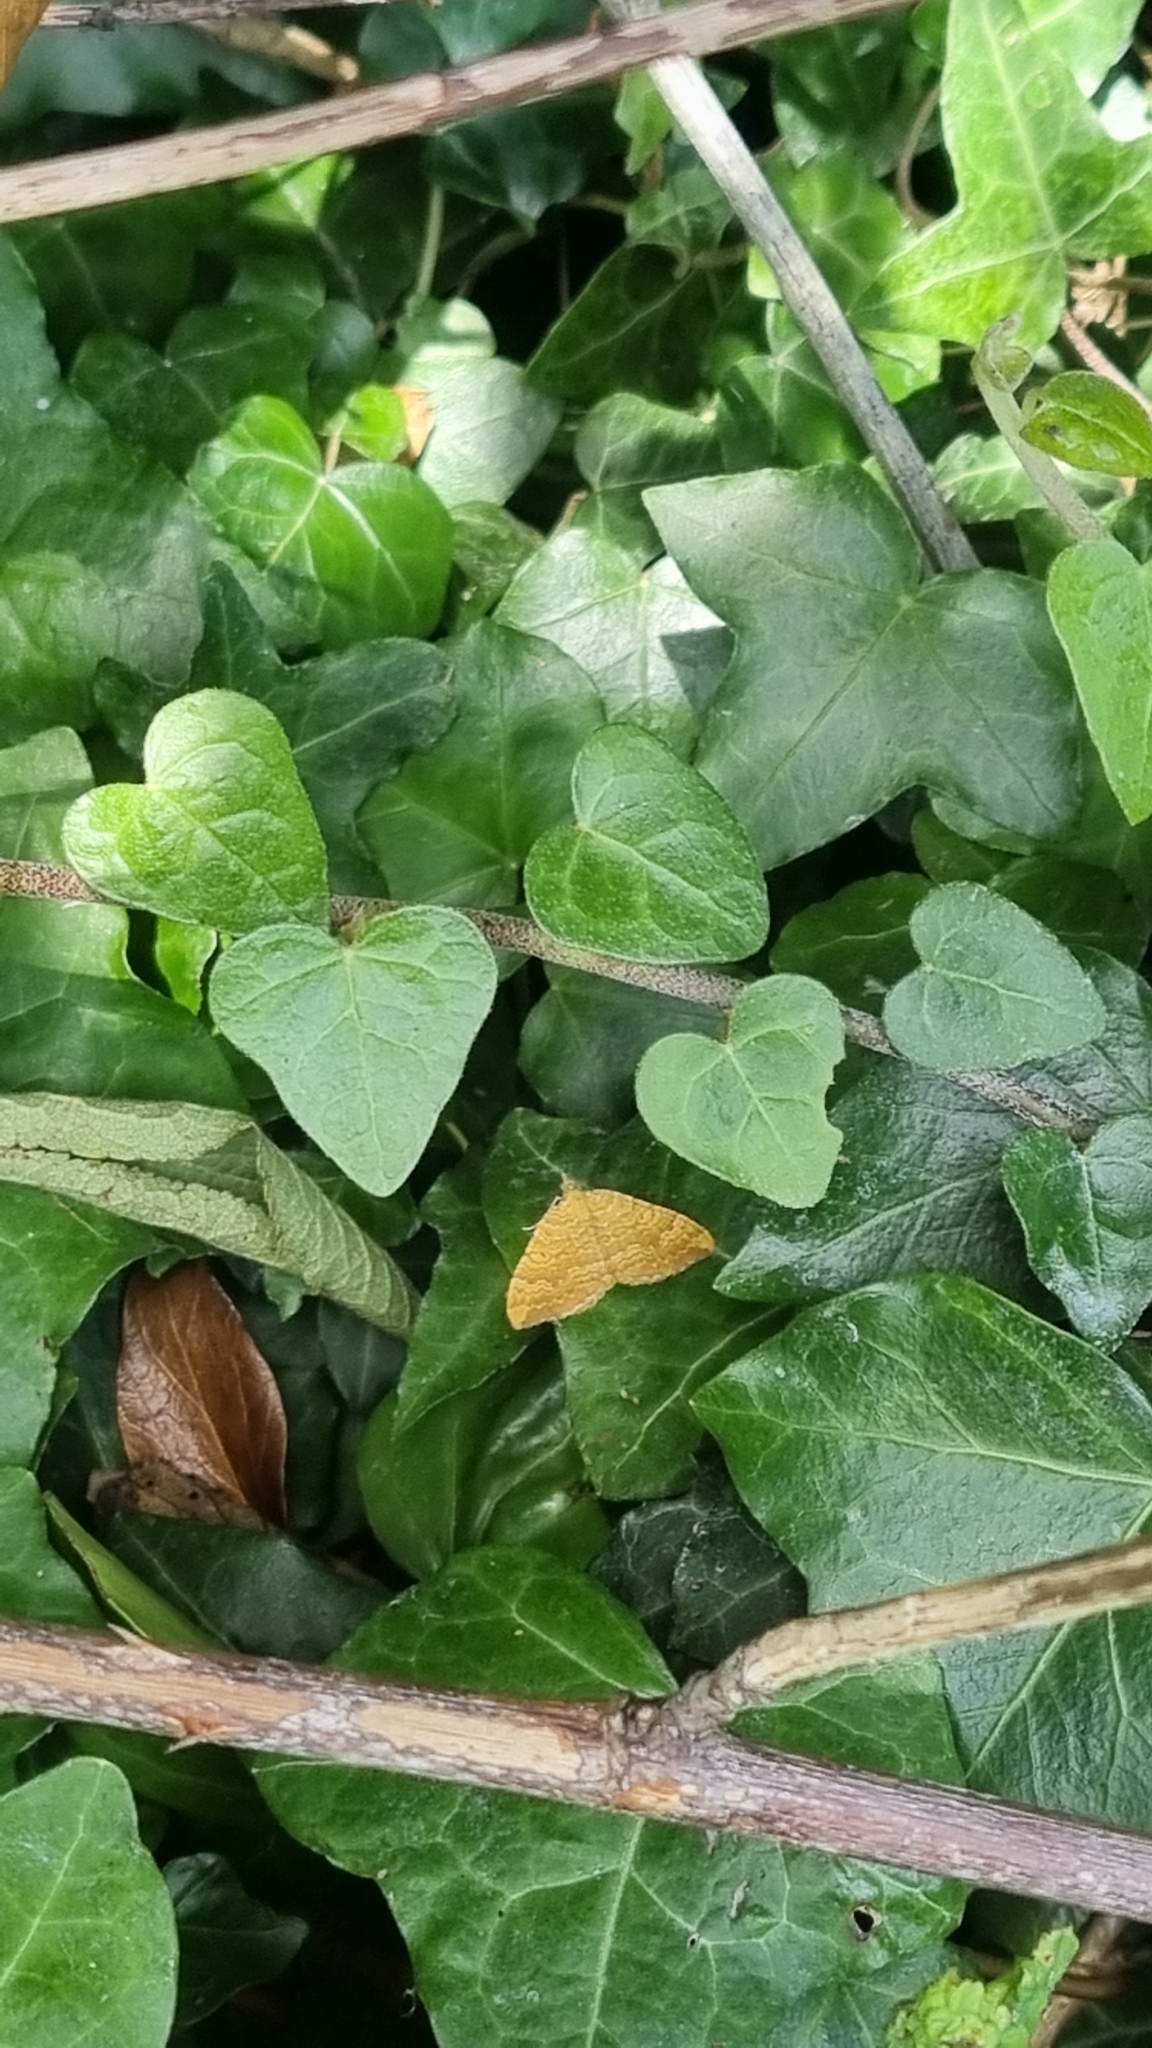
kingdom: Animalia
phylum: Arthropoda
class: Insecta
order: Lepidoptera
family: Geometridae
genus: Camptogramma
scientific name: Camptogramma bilineata
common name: Yellow shell
